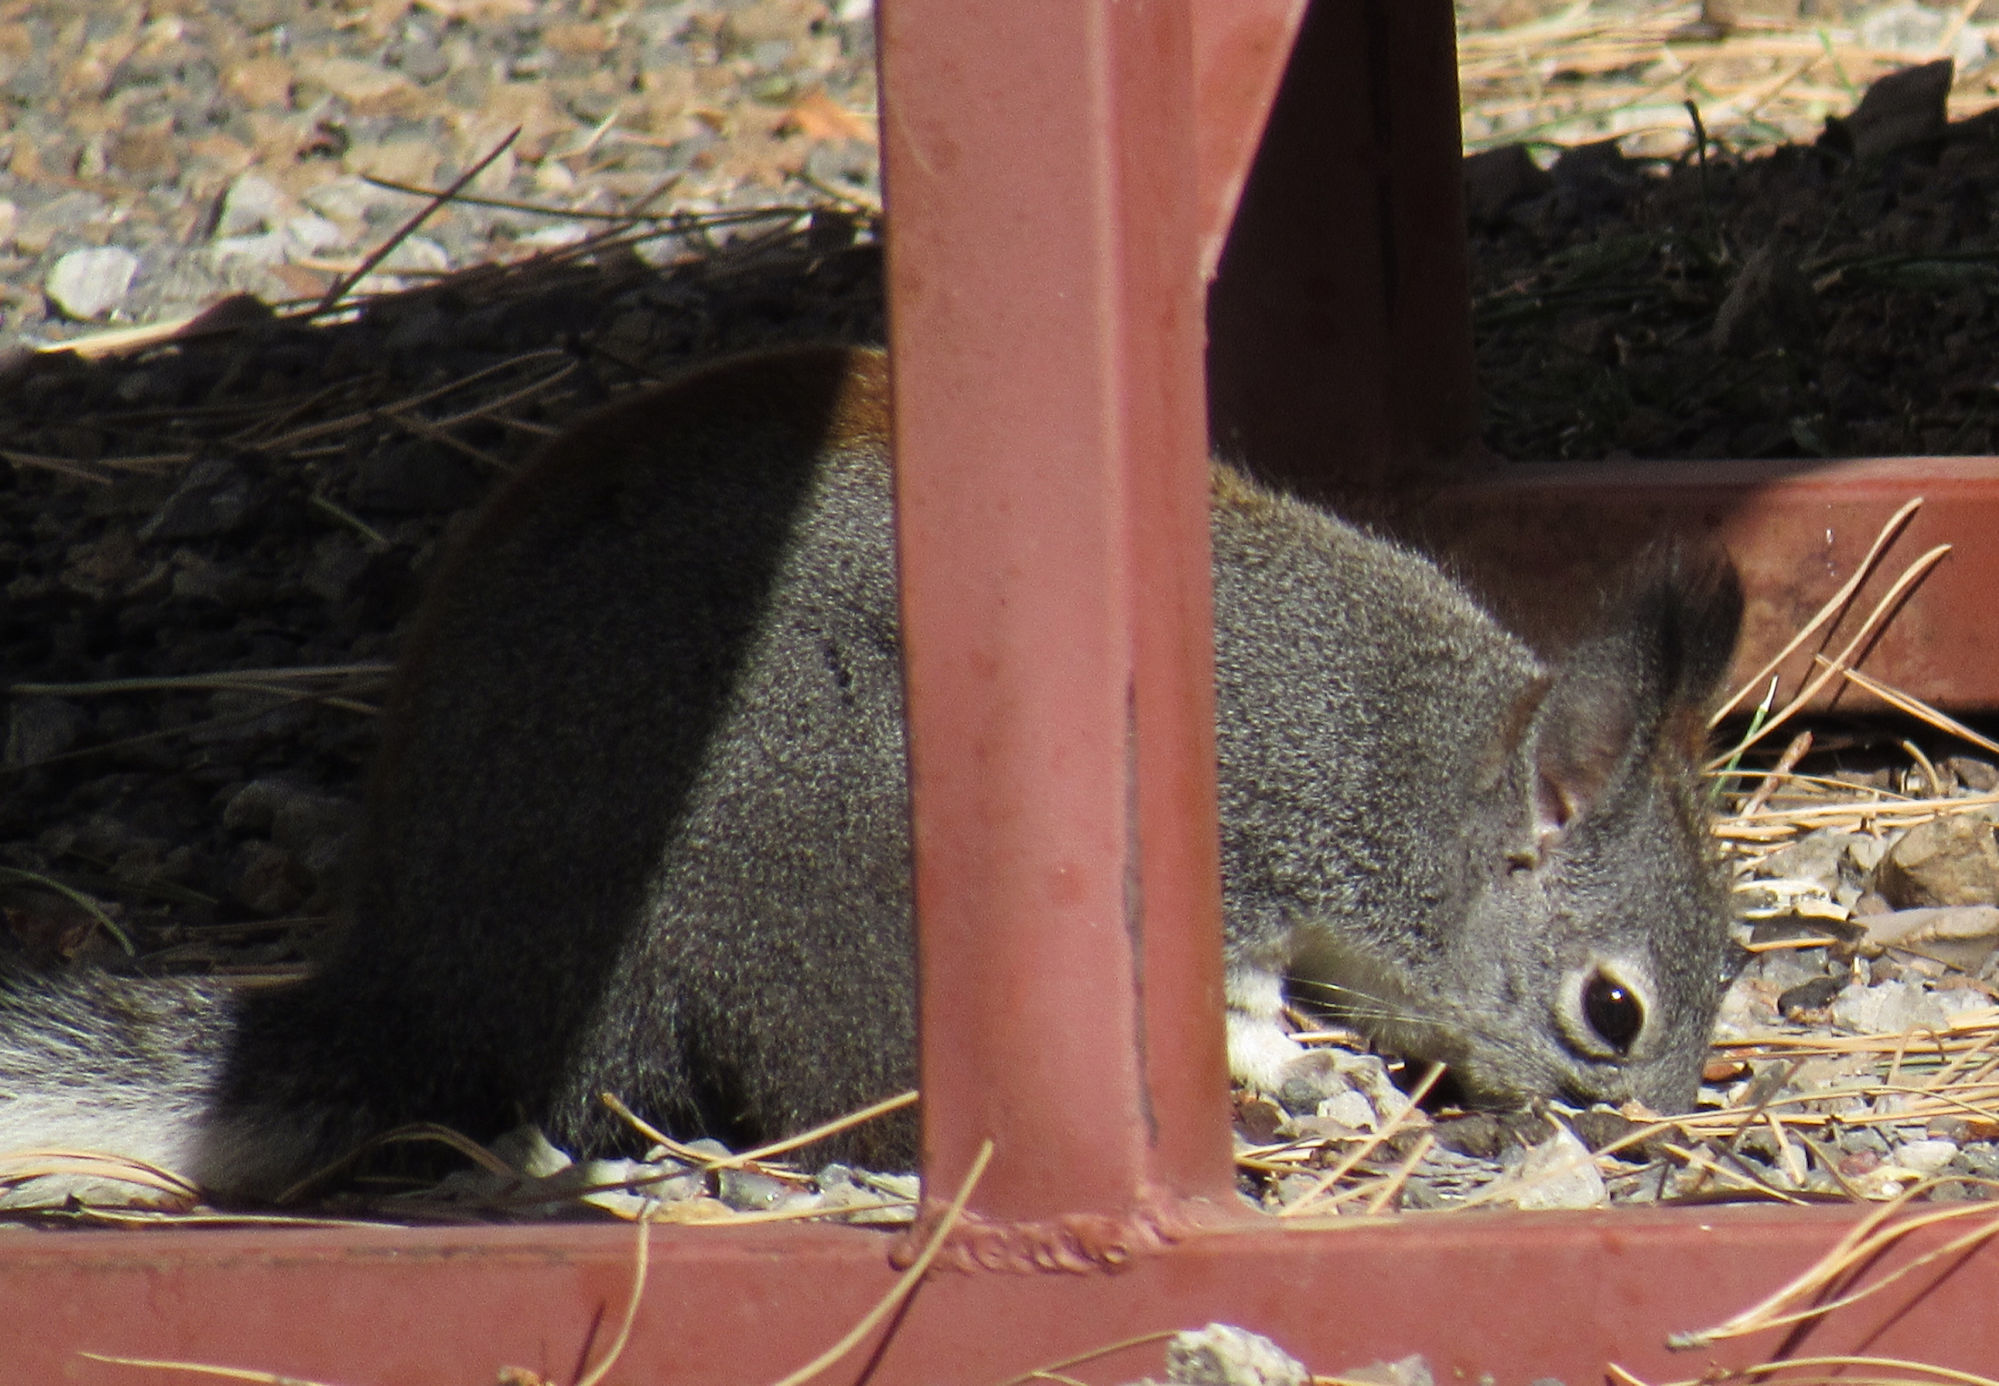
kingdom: Animalia
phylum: Chordata
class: Mammalia
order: Rodentia
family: Sciuridae
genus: Sciurus
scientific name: Sciurus aberti
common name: Abert's squirrel
